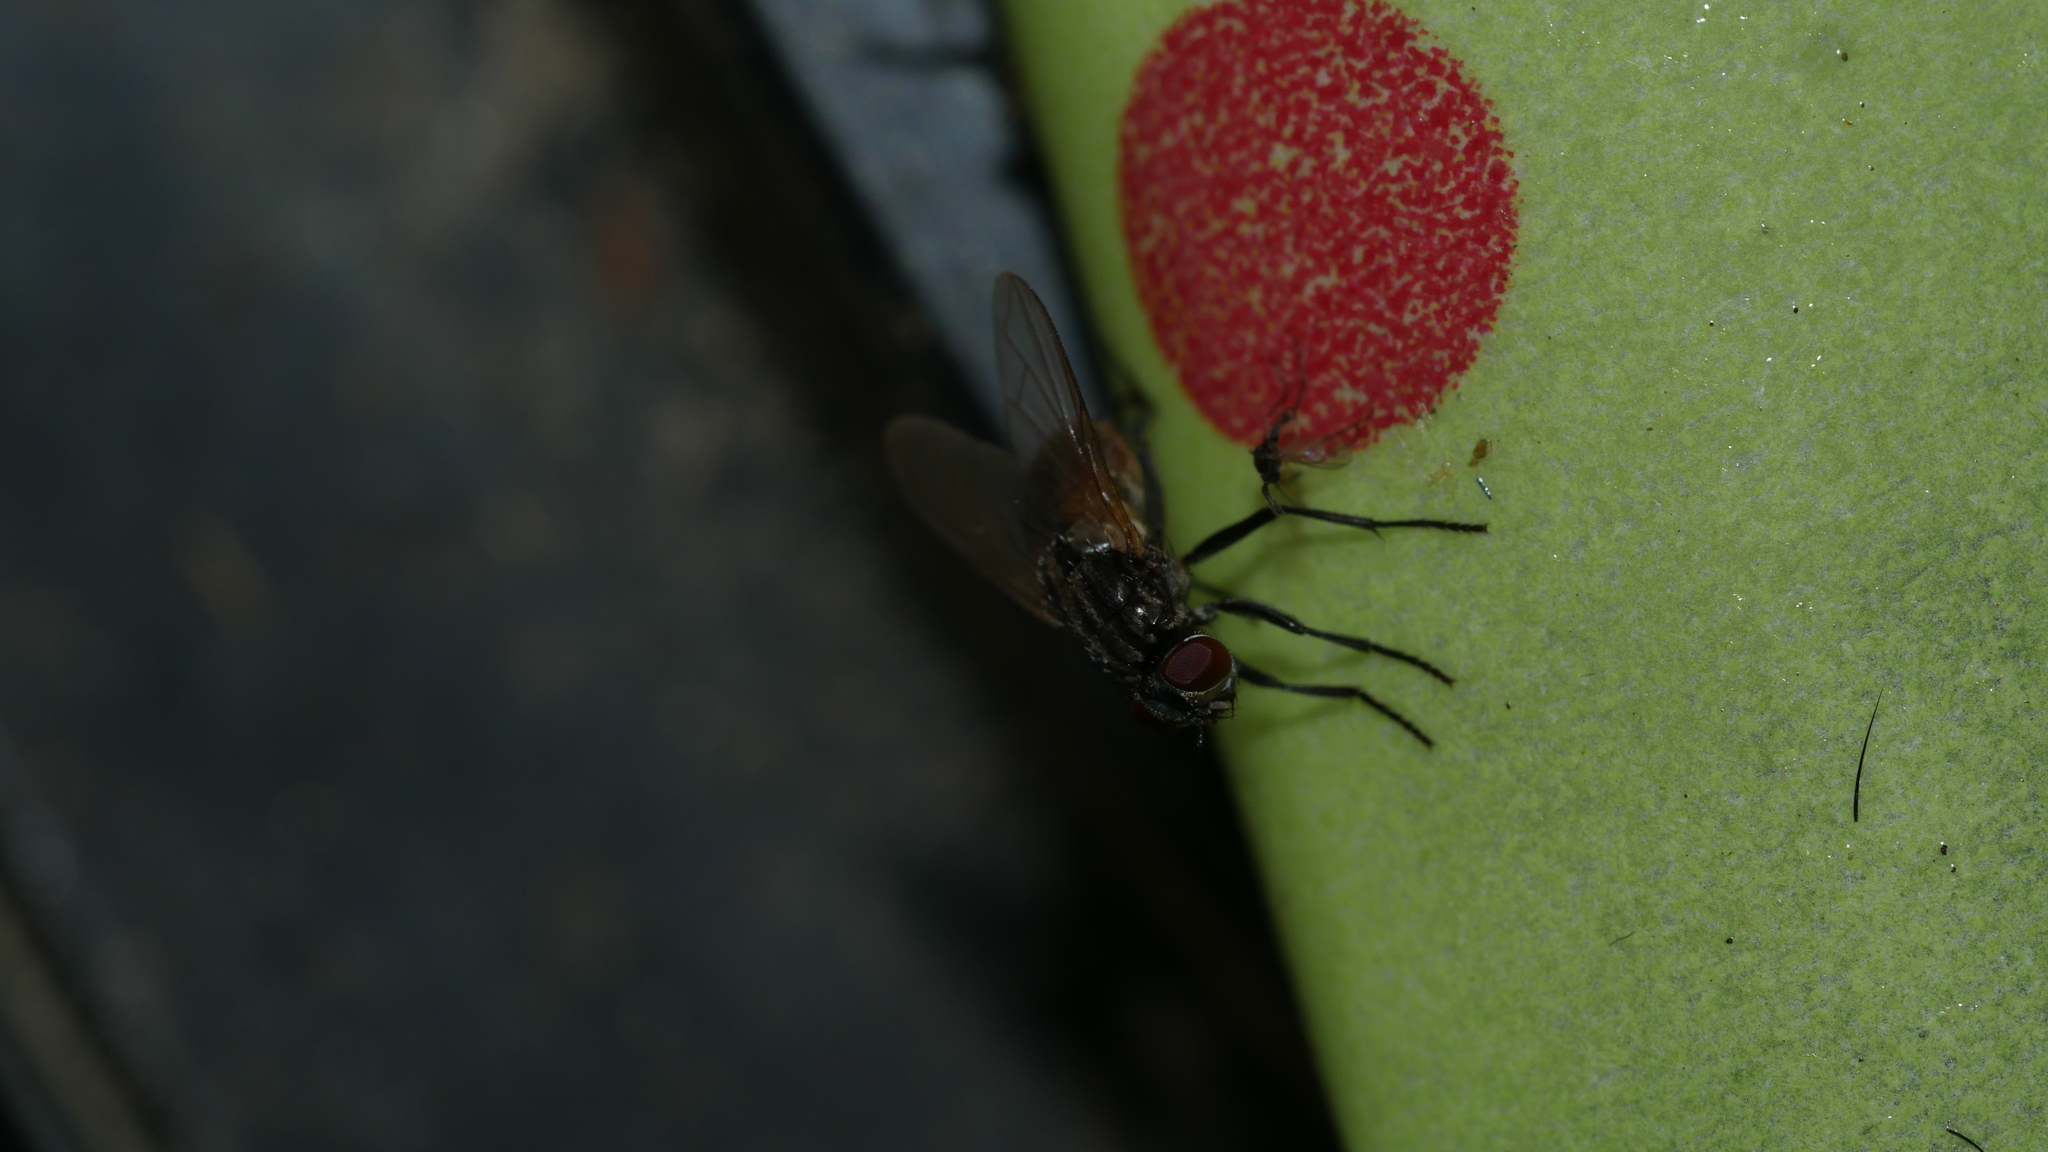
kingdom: Animalia
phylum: Arthropoda
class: Insecta
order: Diptera
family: Muscidae
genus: Musca
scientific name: Musca domestica
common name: House fly
